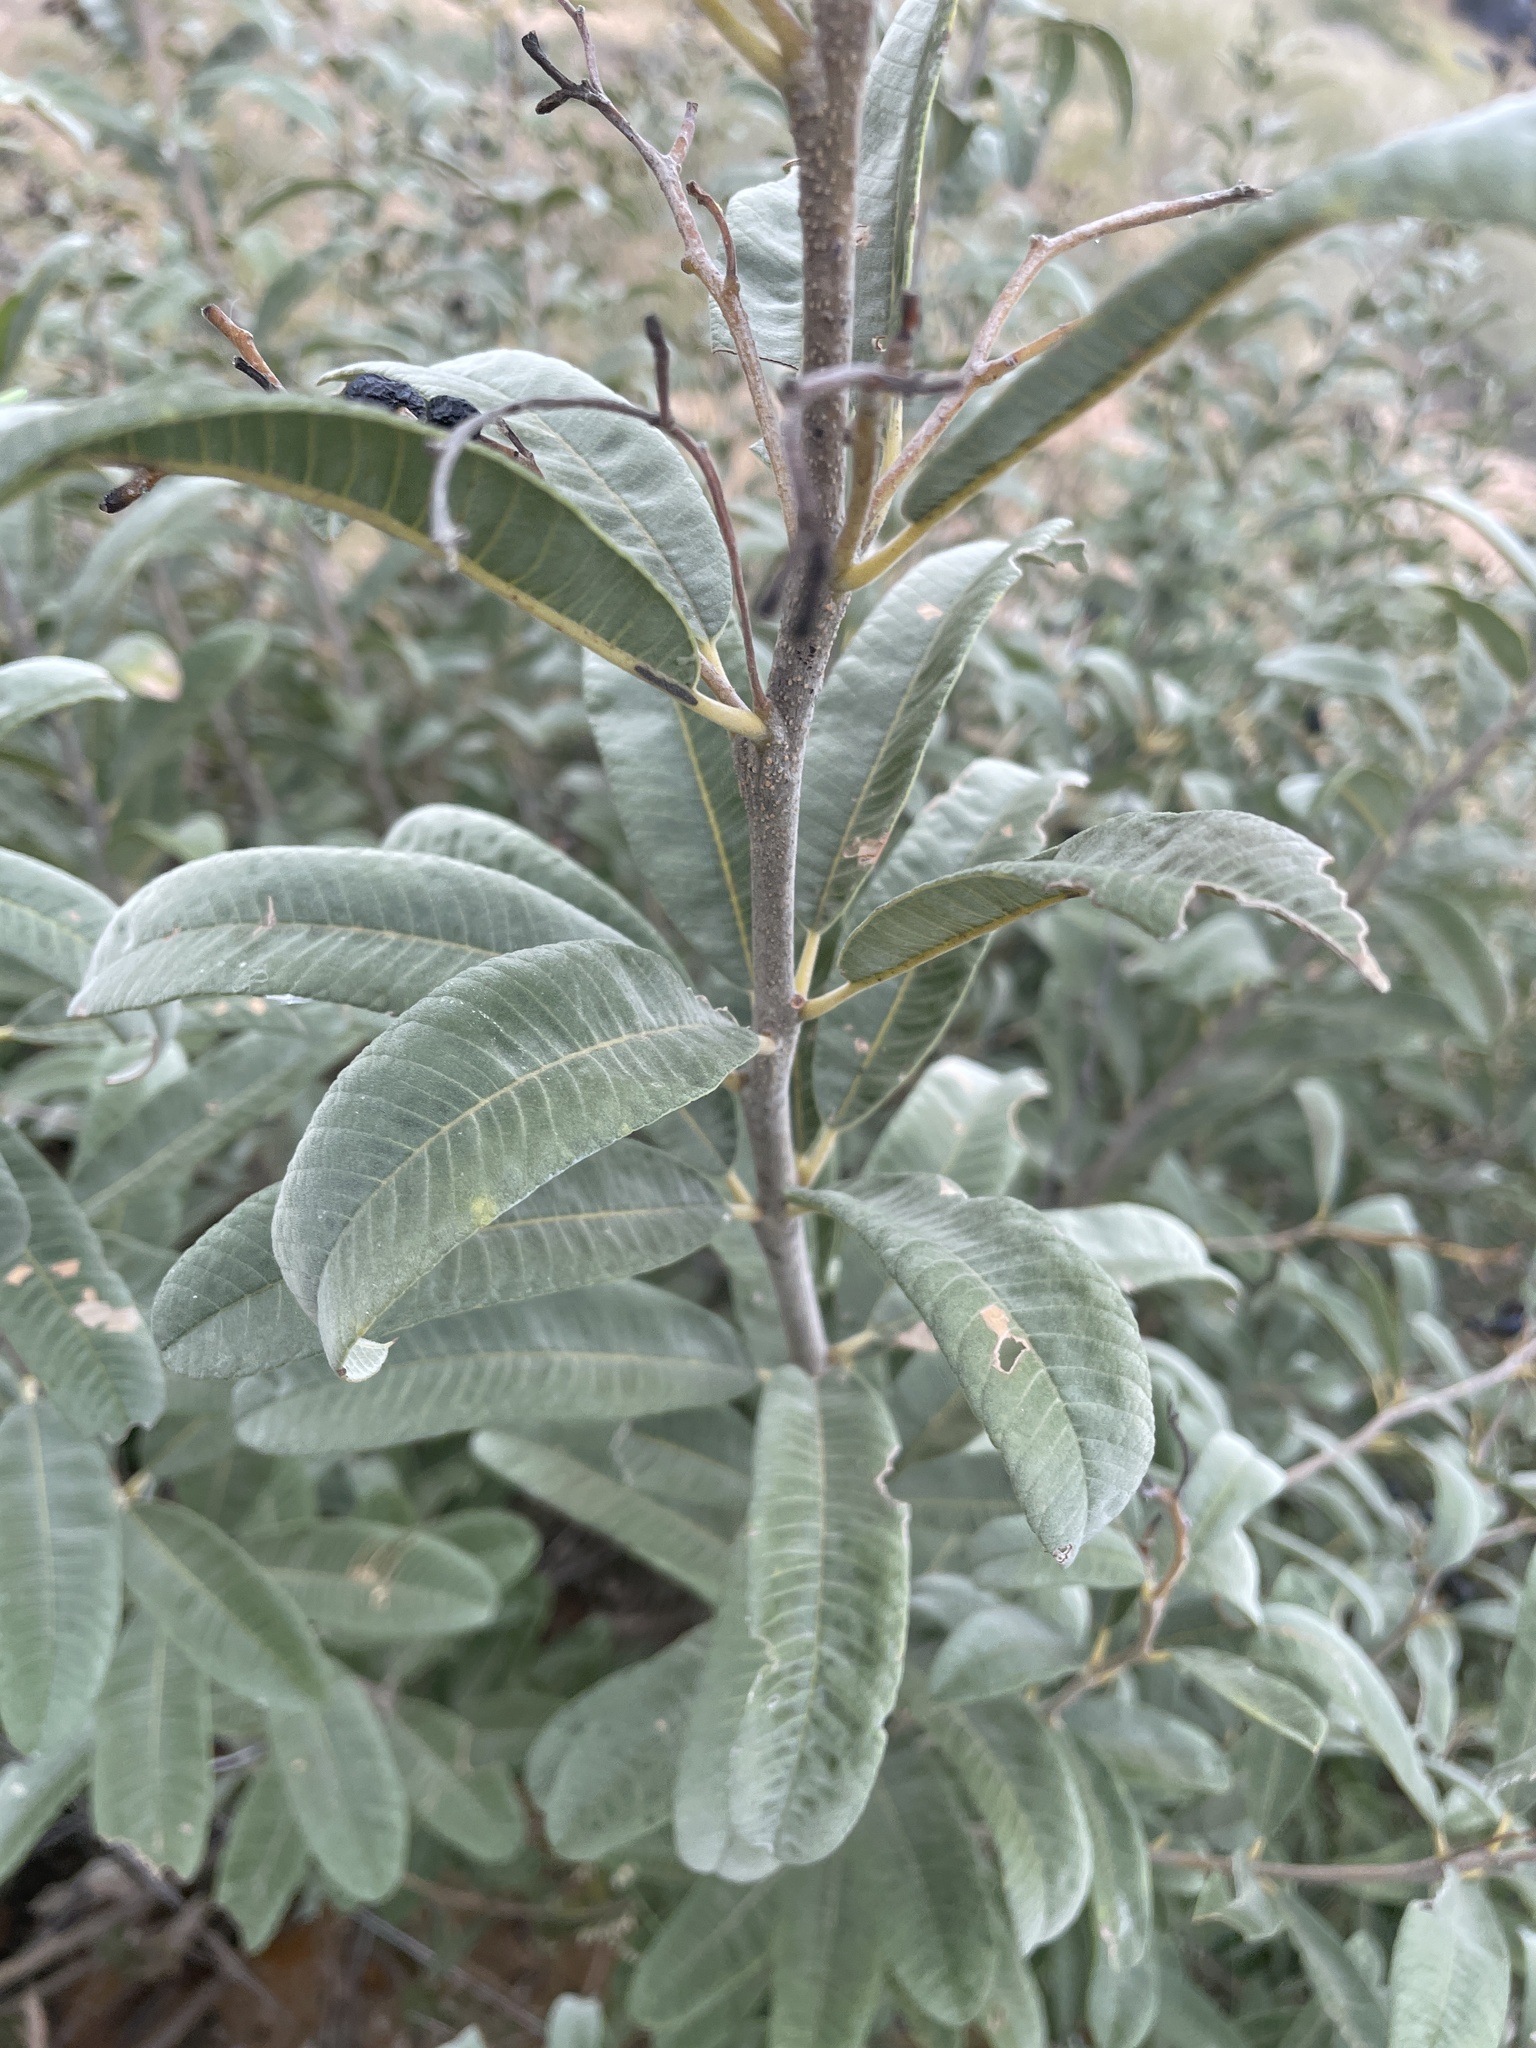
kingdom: Plantae
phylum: Tracheophyta
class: Magnoliopsida
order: Sapindales
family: Anacardiaceae
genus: Ozoroa
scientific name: Ozoroa paniculosa
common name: Bushveld ozoroa
